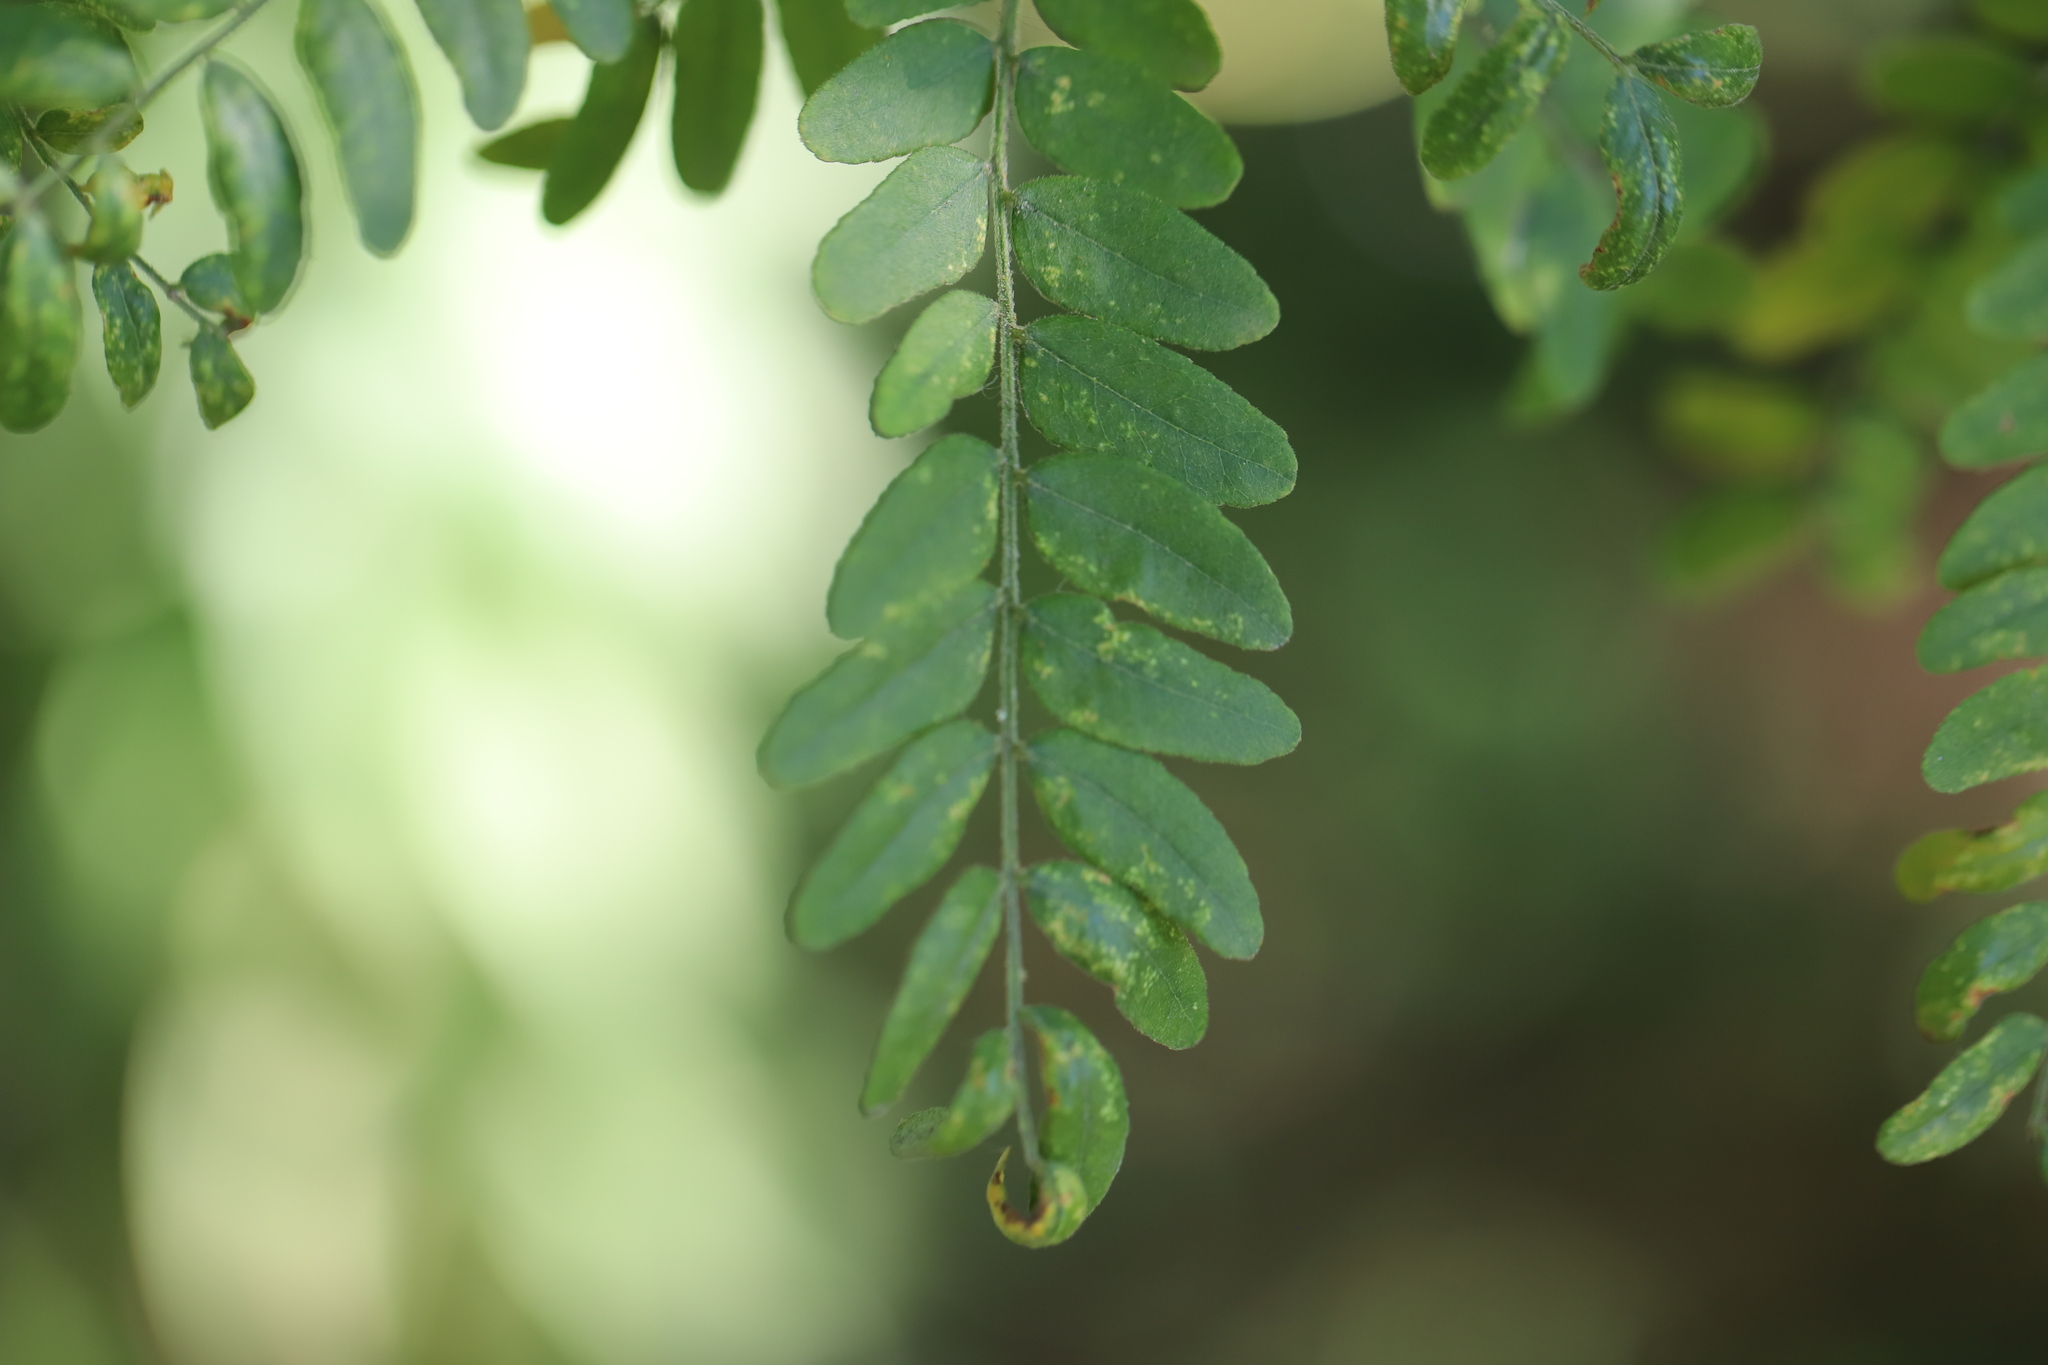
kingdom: Plantae
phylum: Tracheophyta
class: Magnoliopsida
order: Fabales
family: Fabaceae
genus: Gleditsia
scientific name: Gleditsia triacanthos
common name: Common honeylocust
